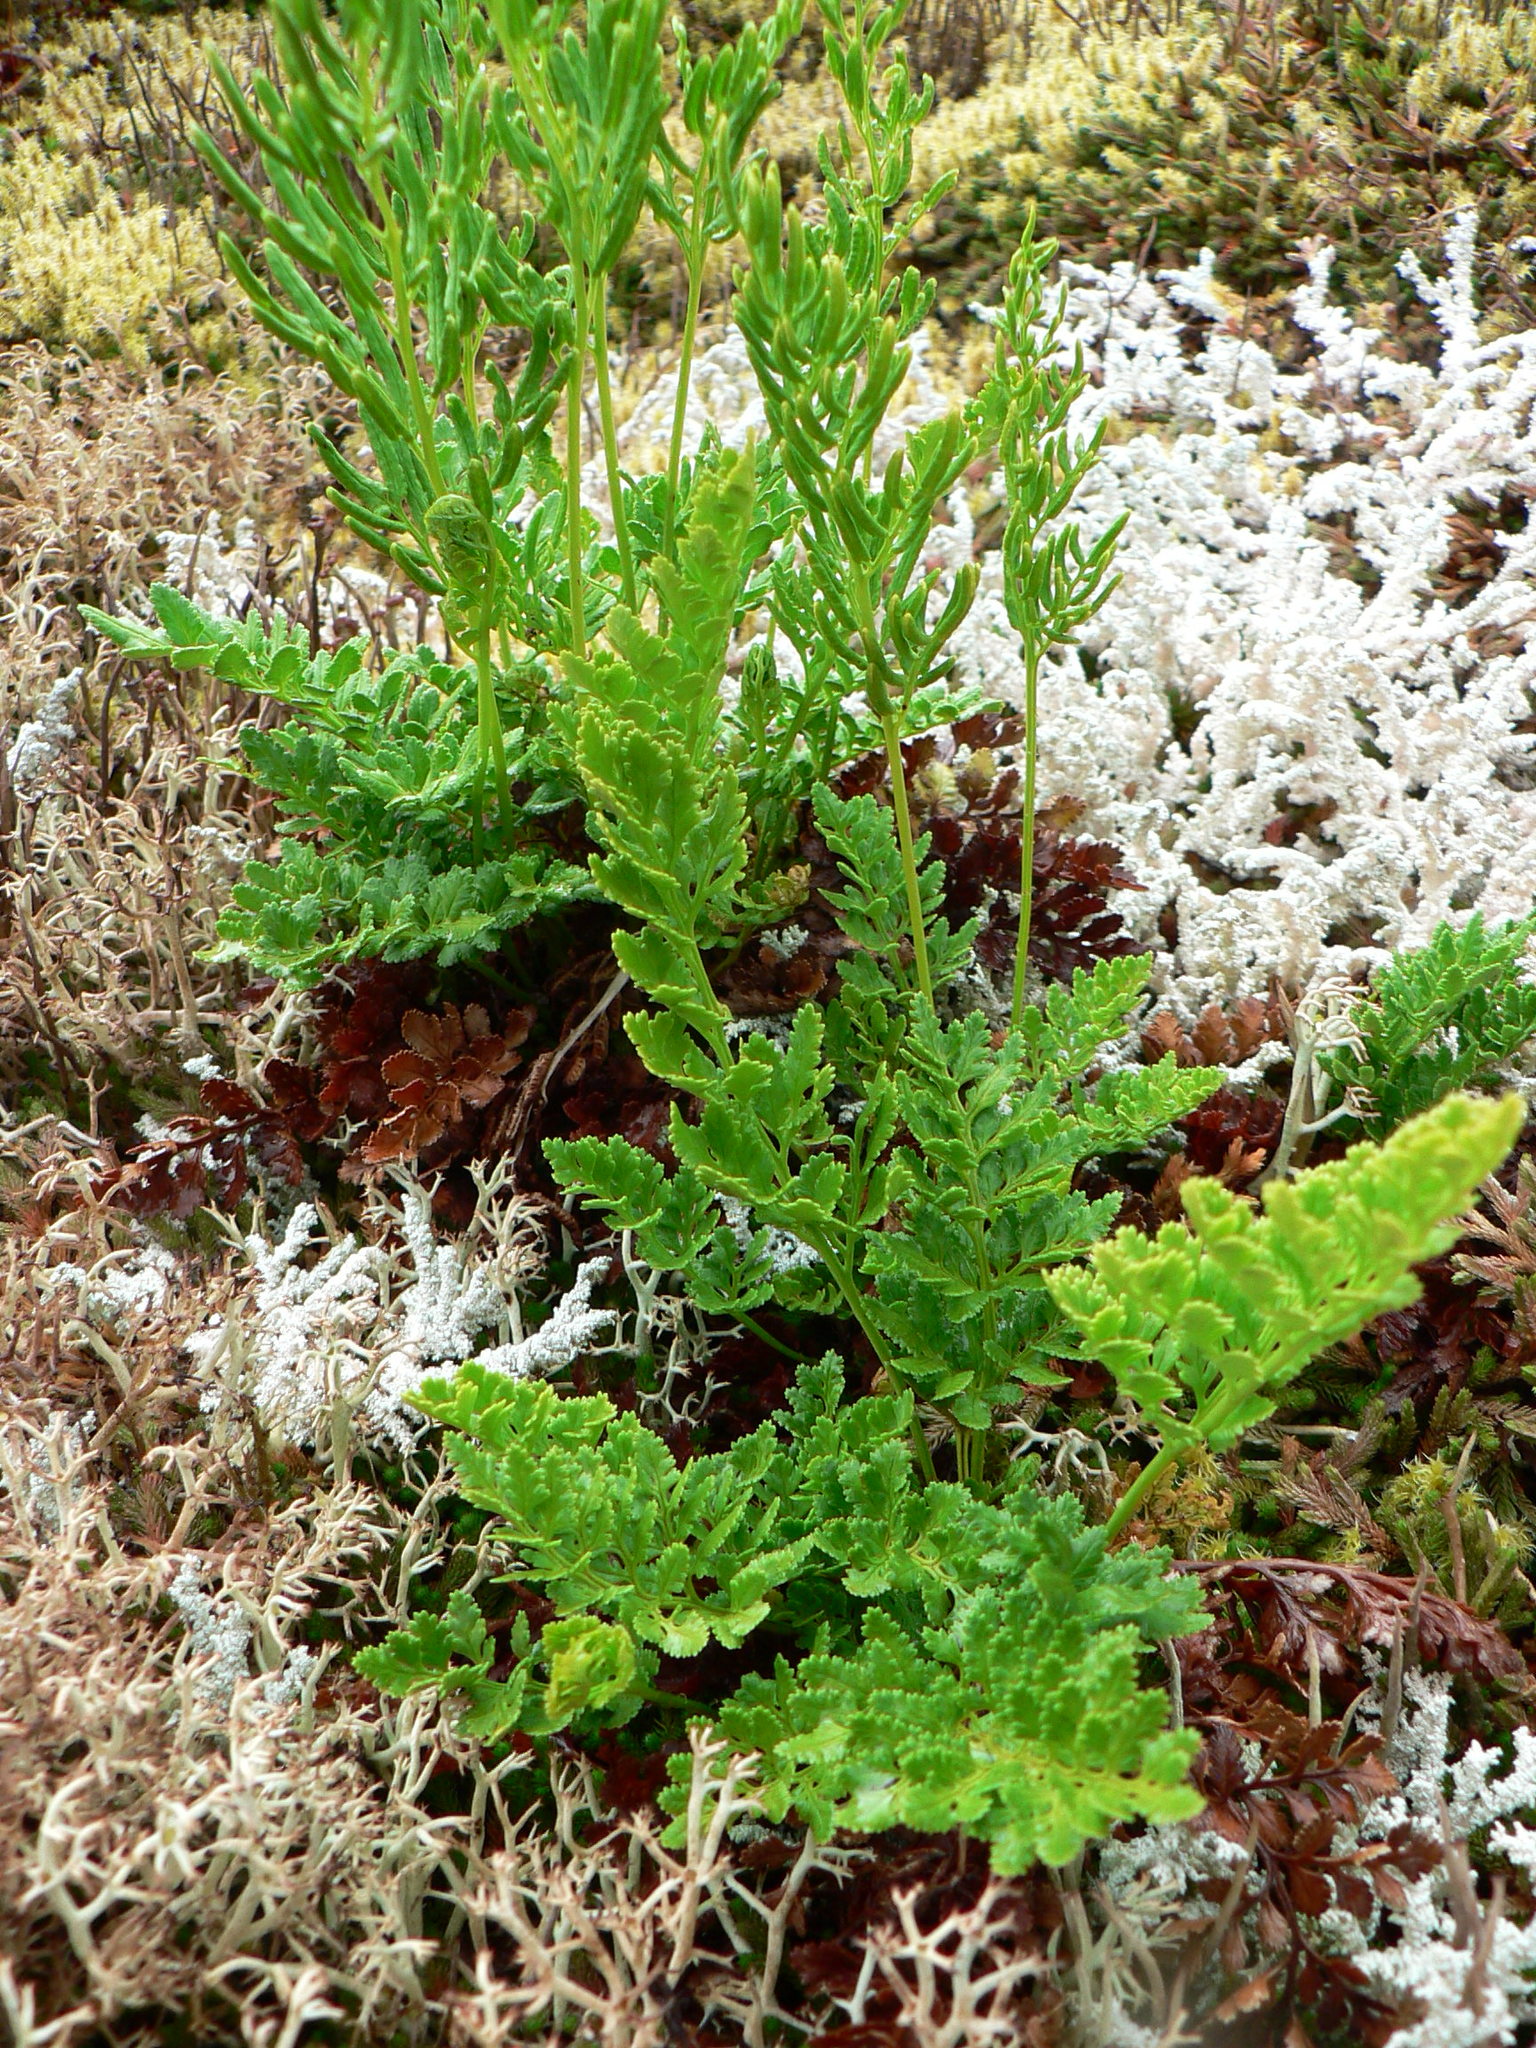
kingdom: Plantae
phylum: Tracheophyta
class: Polypodiopsida
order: Polypodiales
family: Pteridaceae
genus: Cryptogramma
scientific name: Cryptogramma acrostichoides
